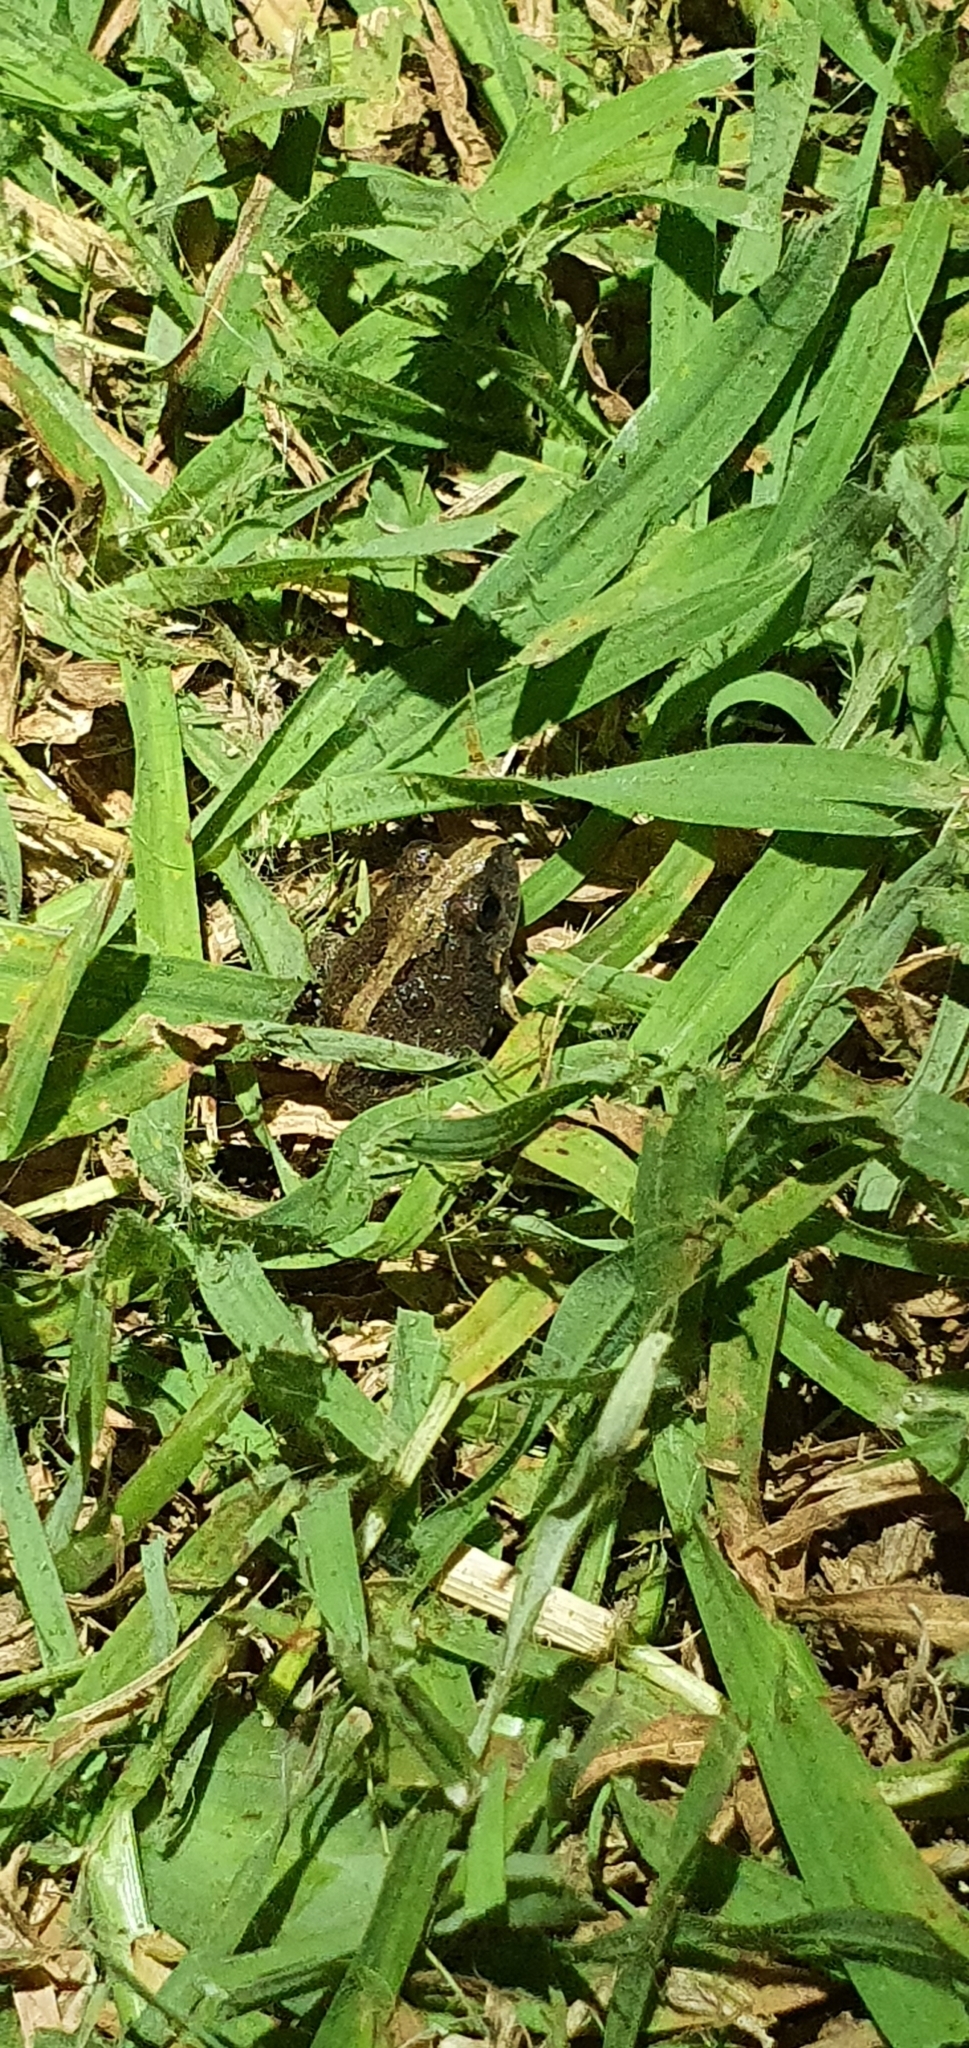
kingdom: Animalia
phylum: Chordata
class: Amphibia
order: Anura
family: Limnodynastidae
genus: Platyplectrum
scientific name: Platyplectrum ornatum
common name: Ornate burrowing frog
